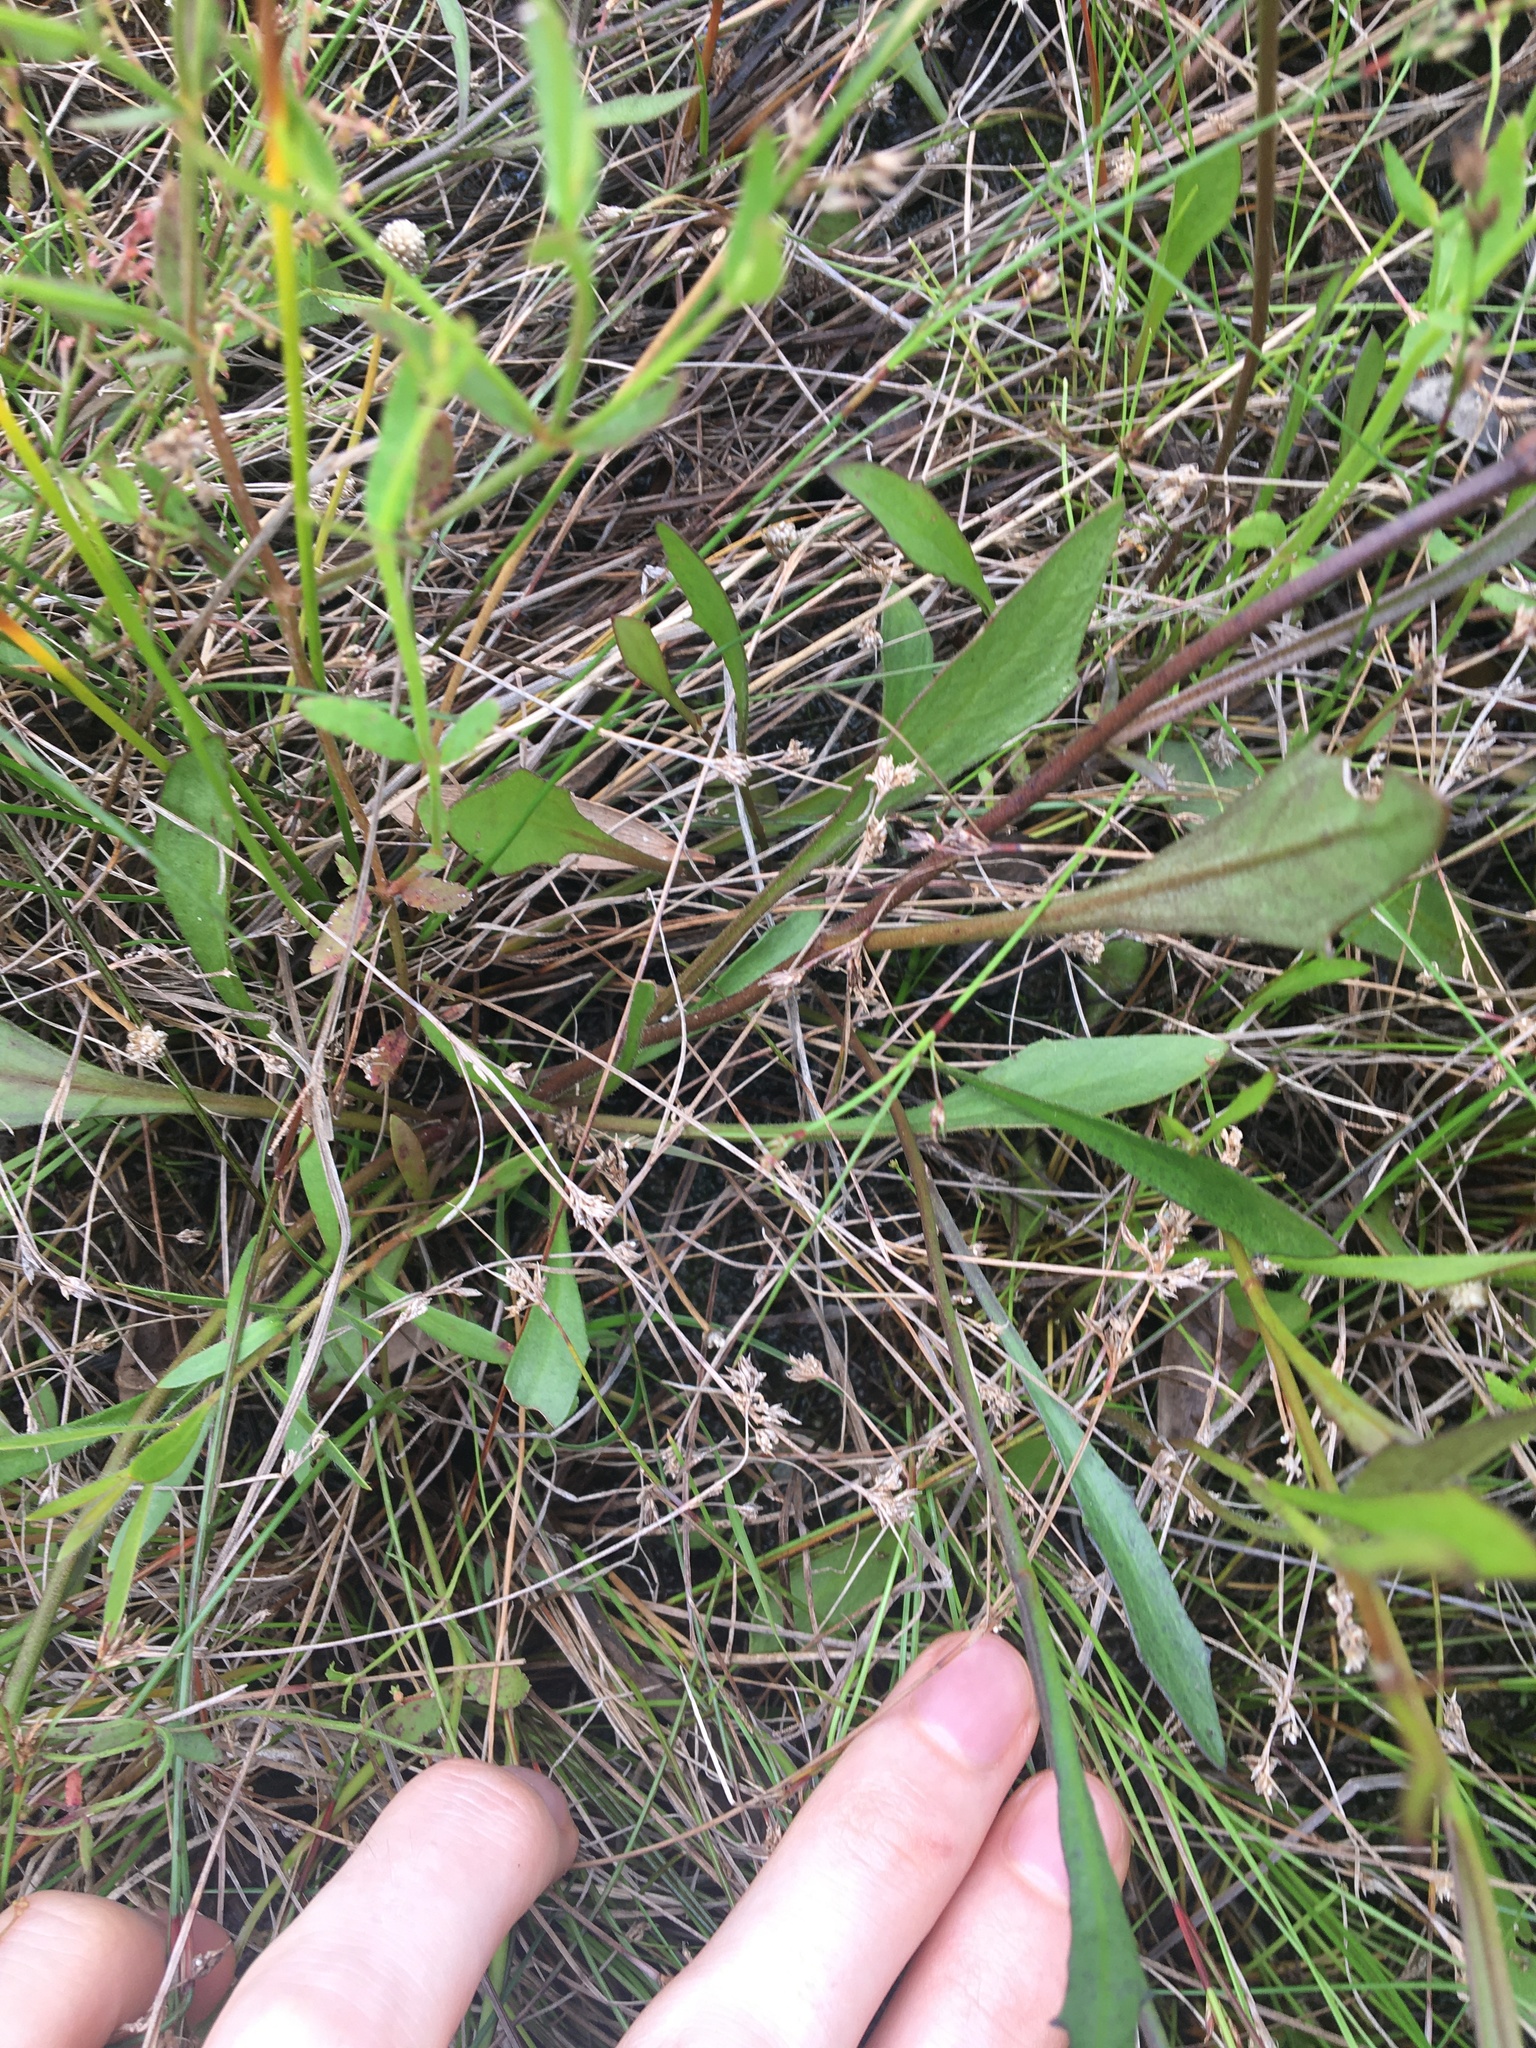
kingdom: Plantae
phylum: Tracheophyta
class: Magnoliopsida
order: Asterales
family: Goodeniaceae
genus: Goodenia
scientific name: Goodenia paniculata
